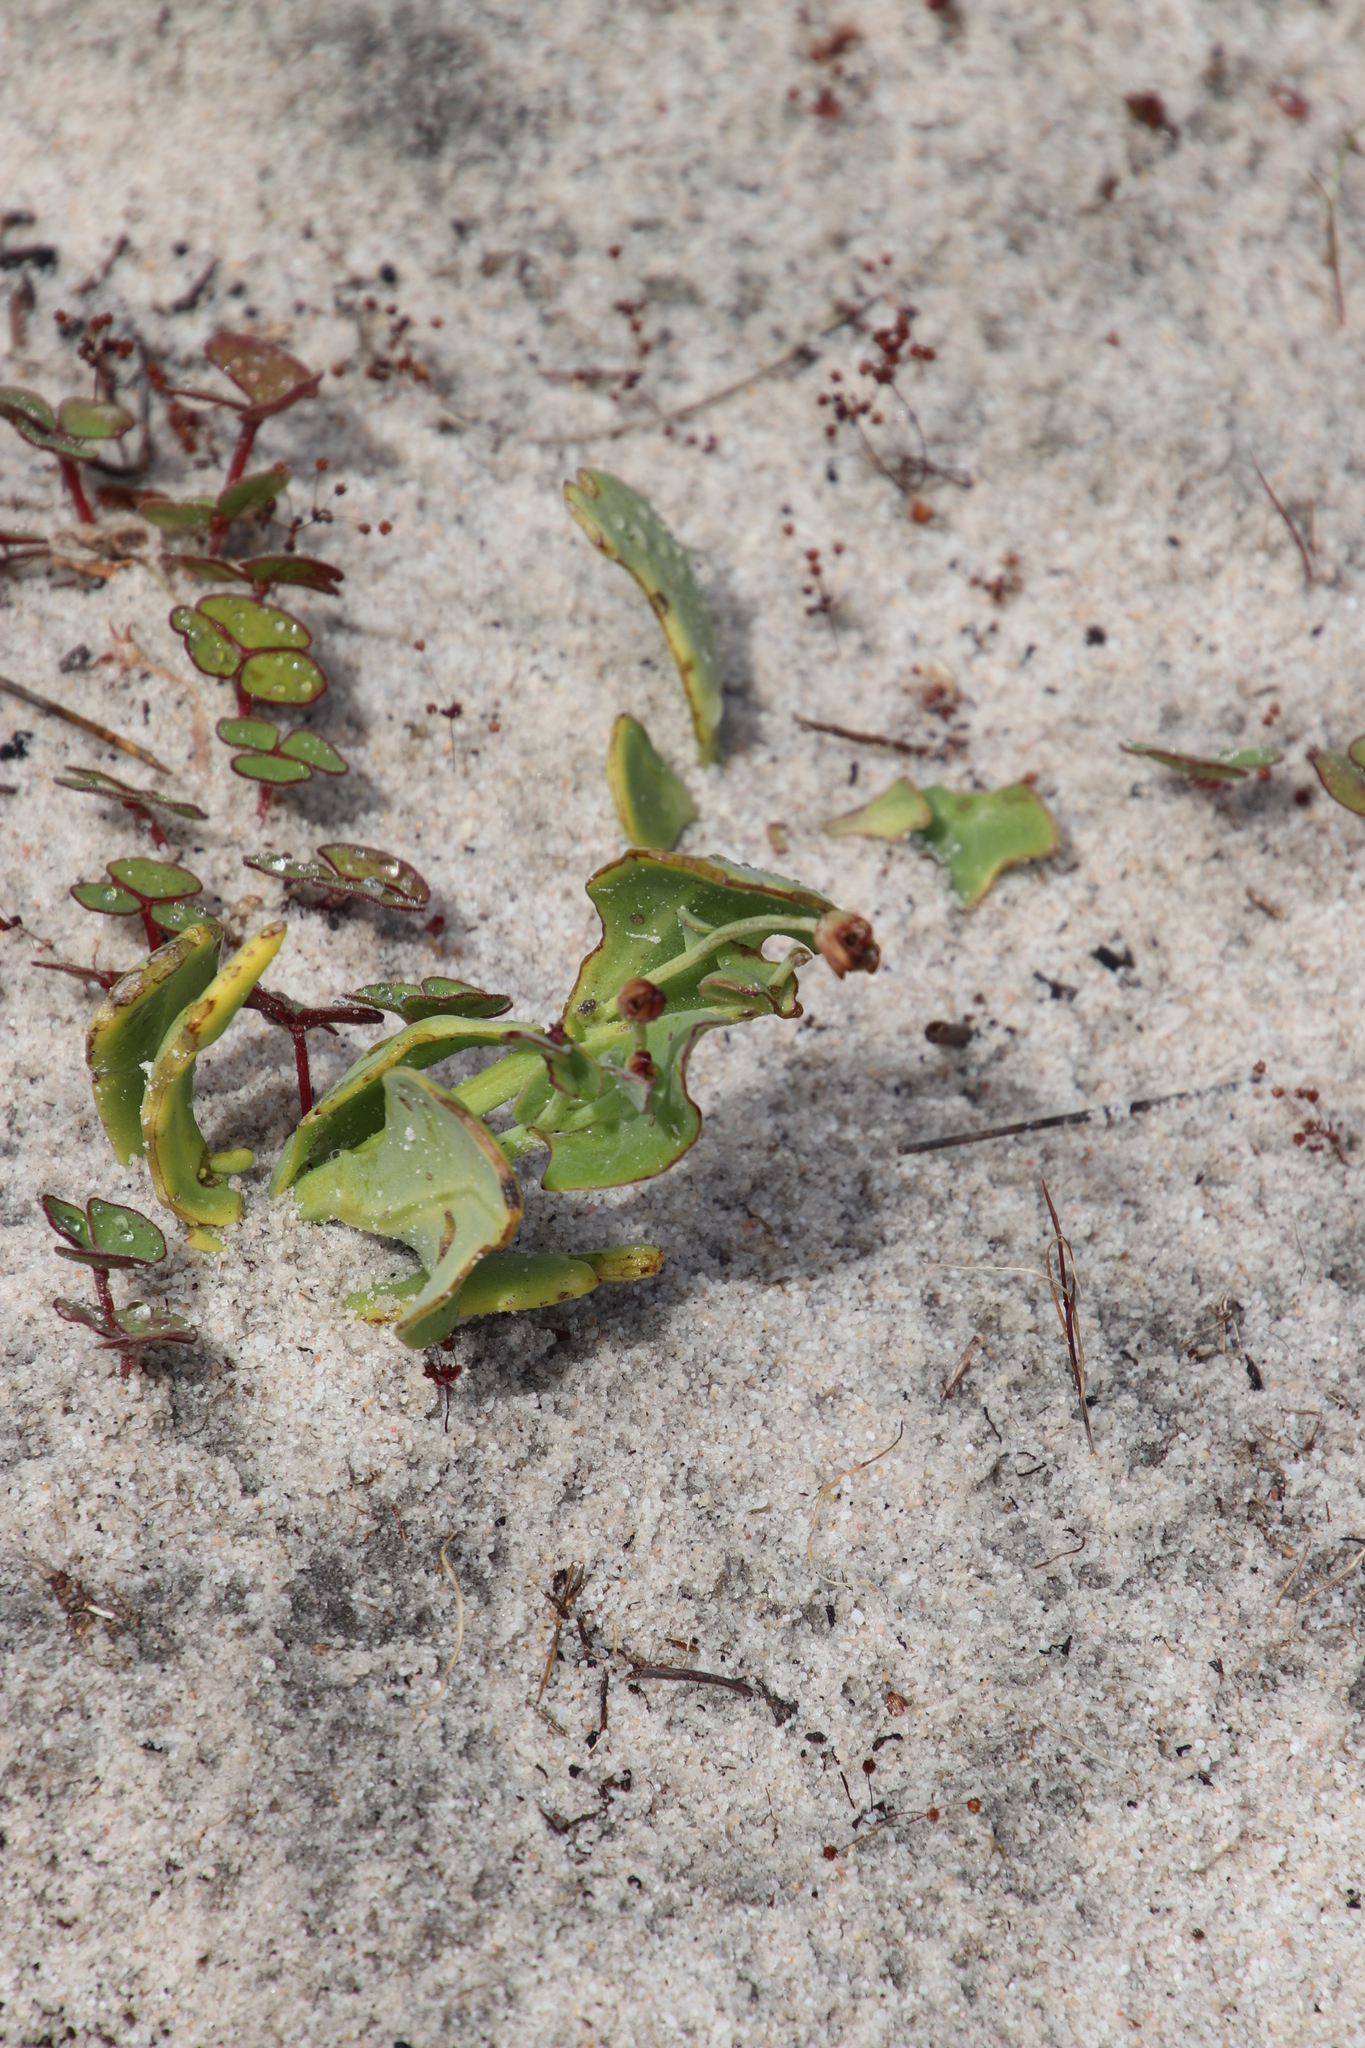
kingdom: Plantae
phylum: Tracheophyta
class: Magnoliopsida
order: Asterales
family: Asteraceae
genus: Othonna
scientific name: Othonna undulosa
